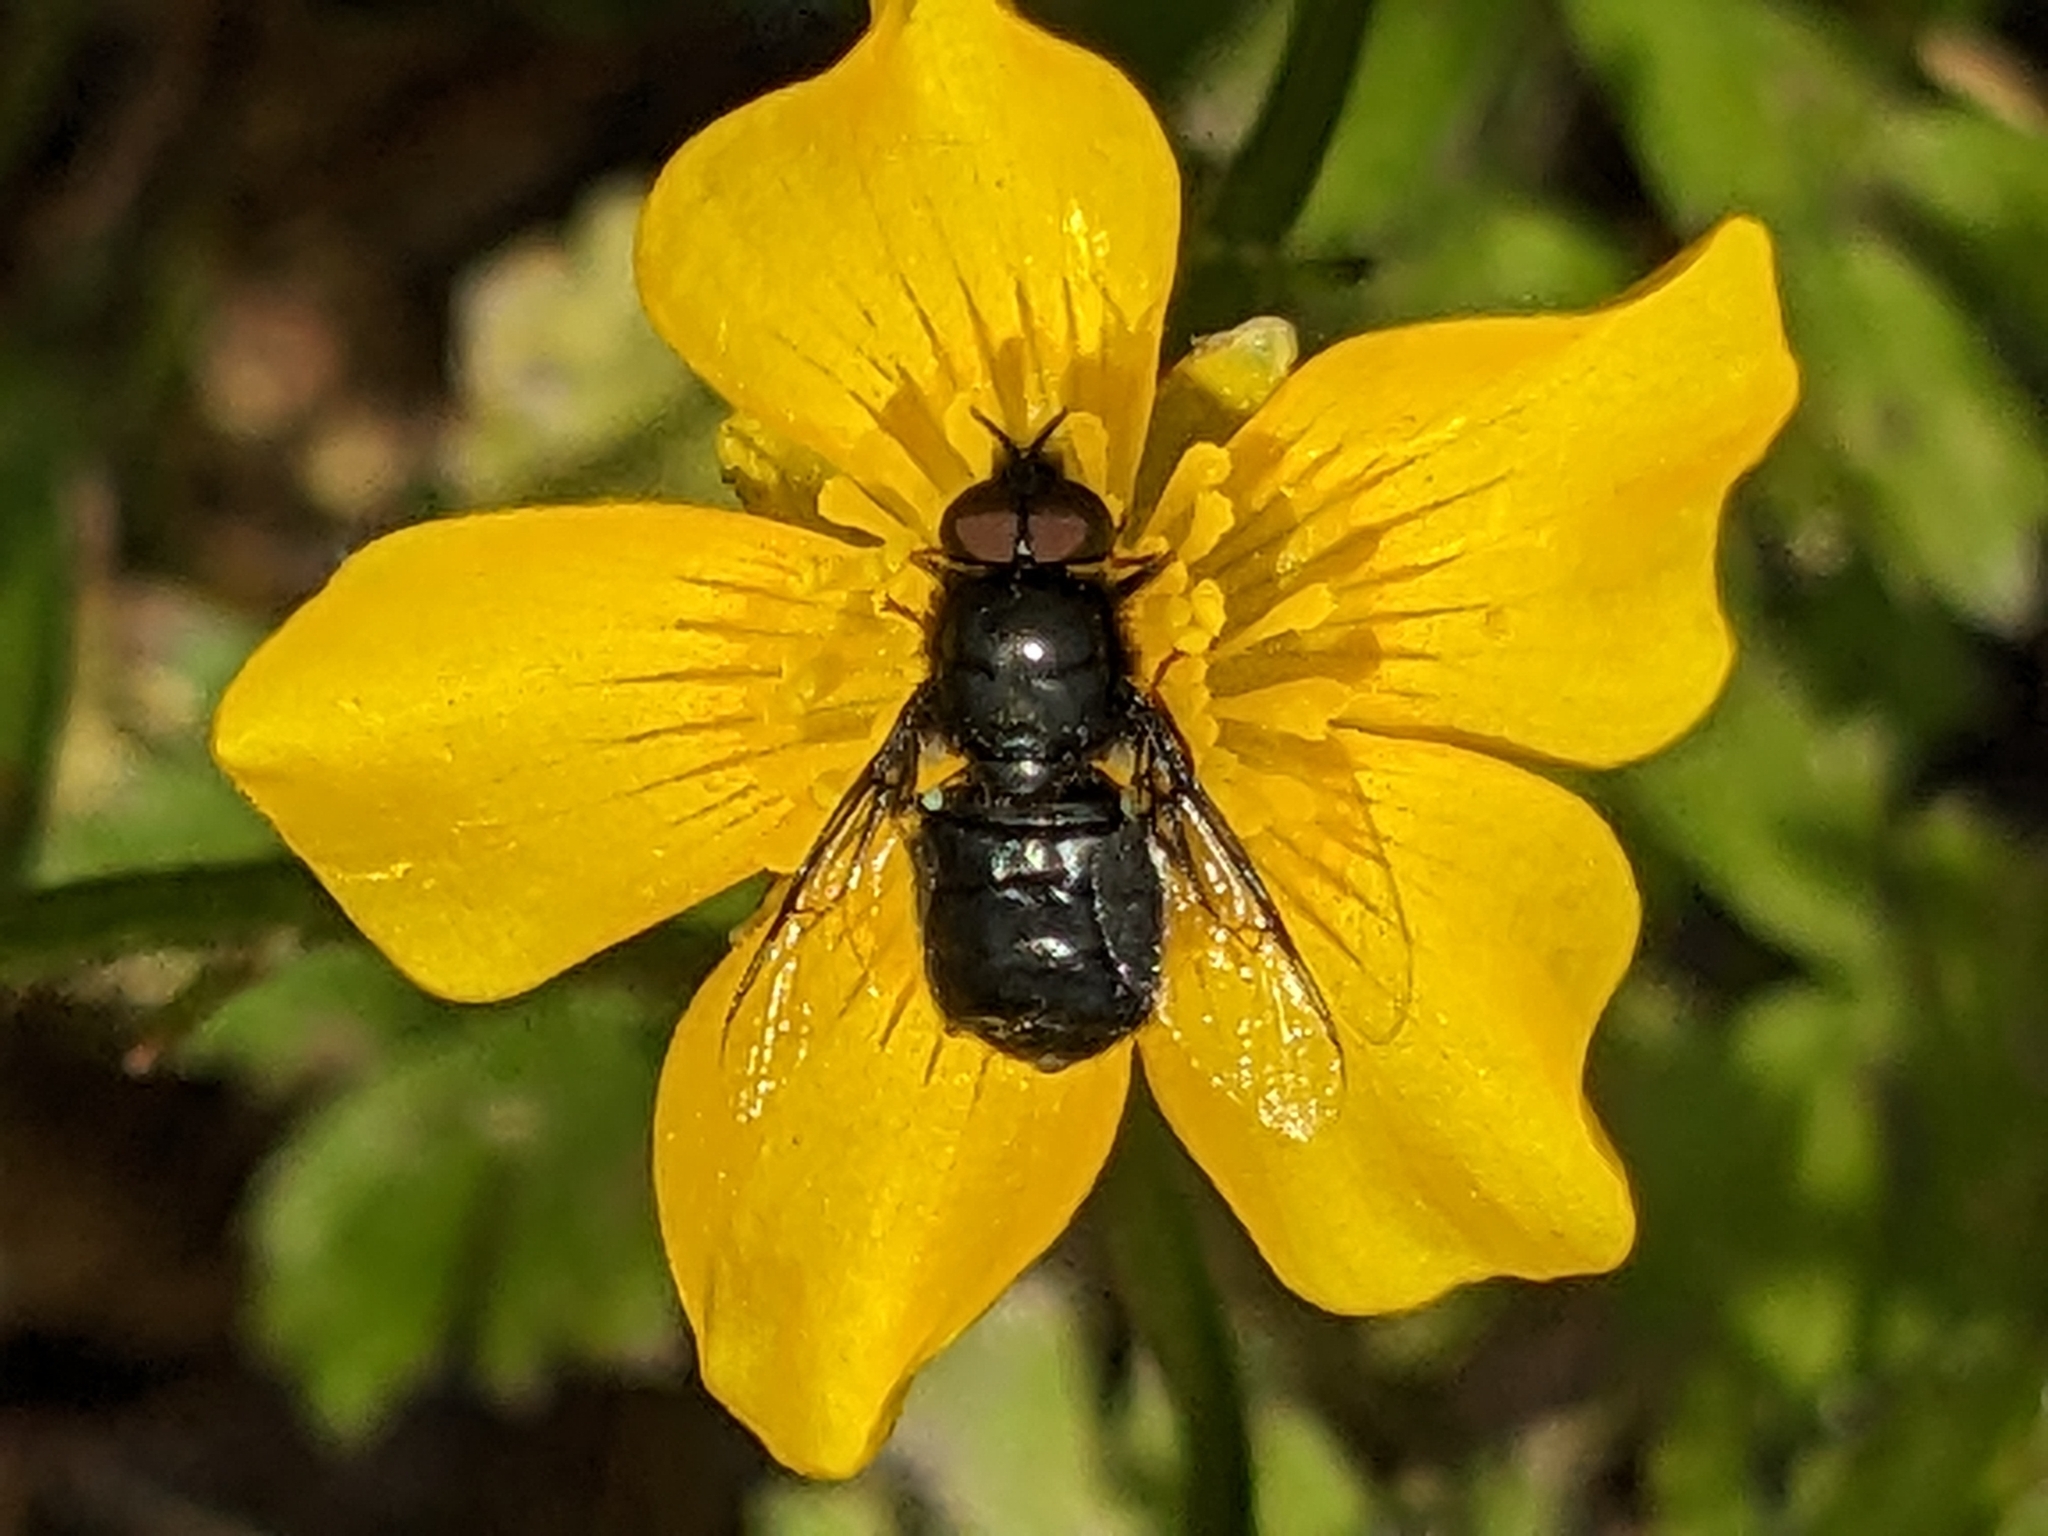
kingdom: Animalia
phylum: Arthropoda
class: Insecta
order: Diptera
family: Stratiomyidae
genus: Odontomyia
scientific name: Odontomyia tigrina
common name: Black colonel
